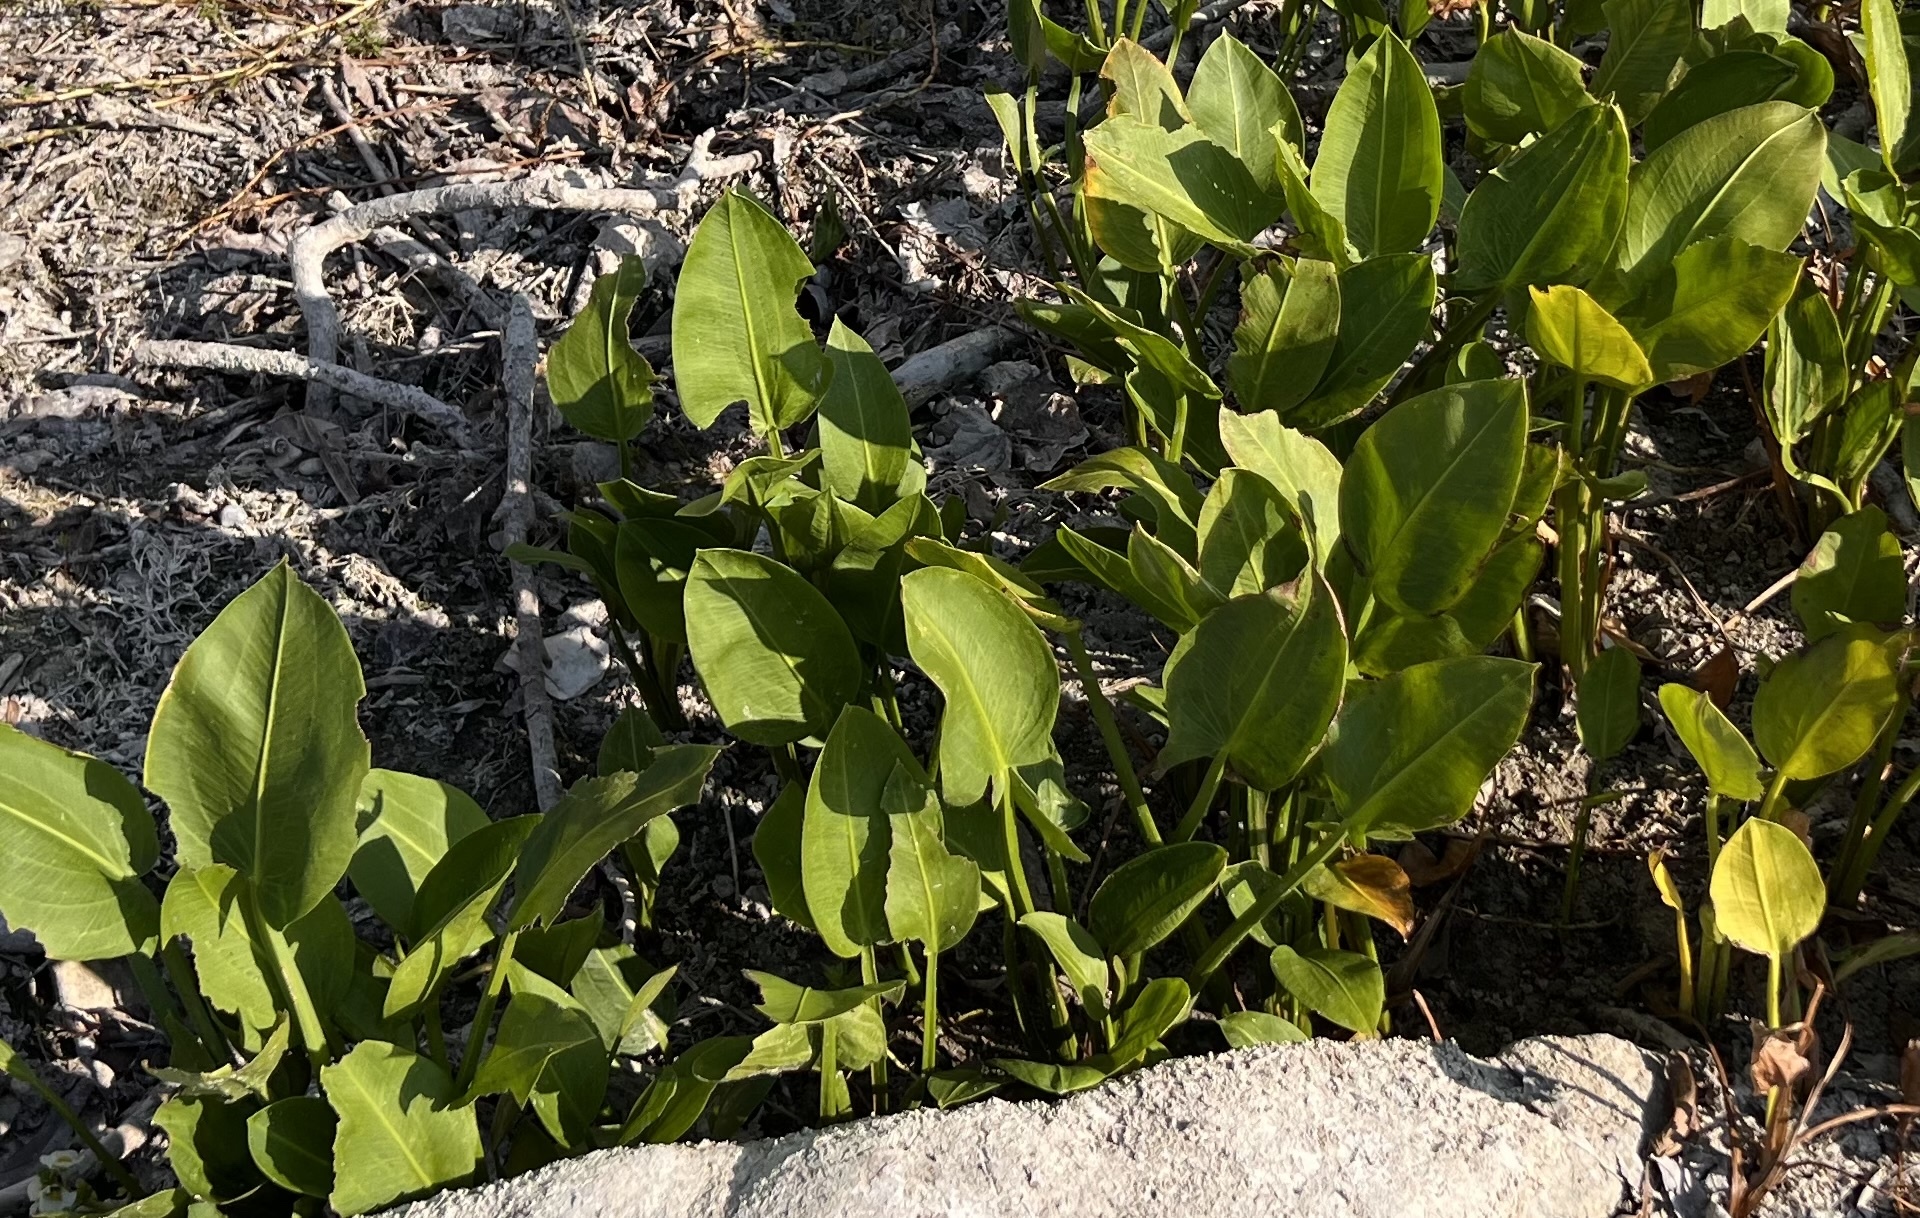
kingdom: Plantae
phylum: Tracheophyta
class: Liliopsida
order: Alismatales
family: Alismataceae
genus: Sagittaria
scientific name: Sagittaria platyphylla
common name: Broad-leaf arrowhead
